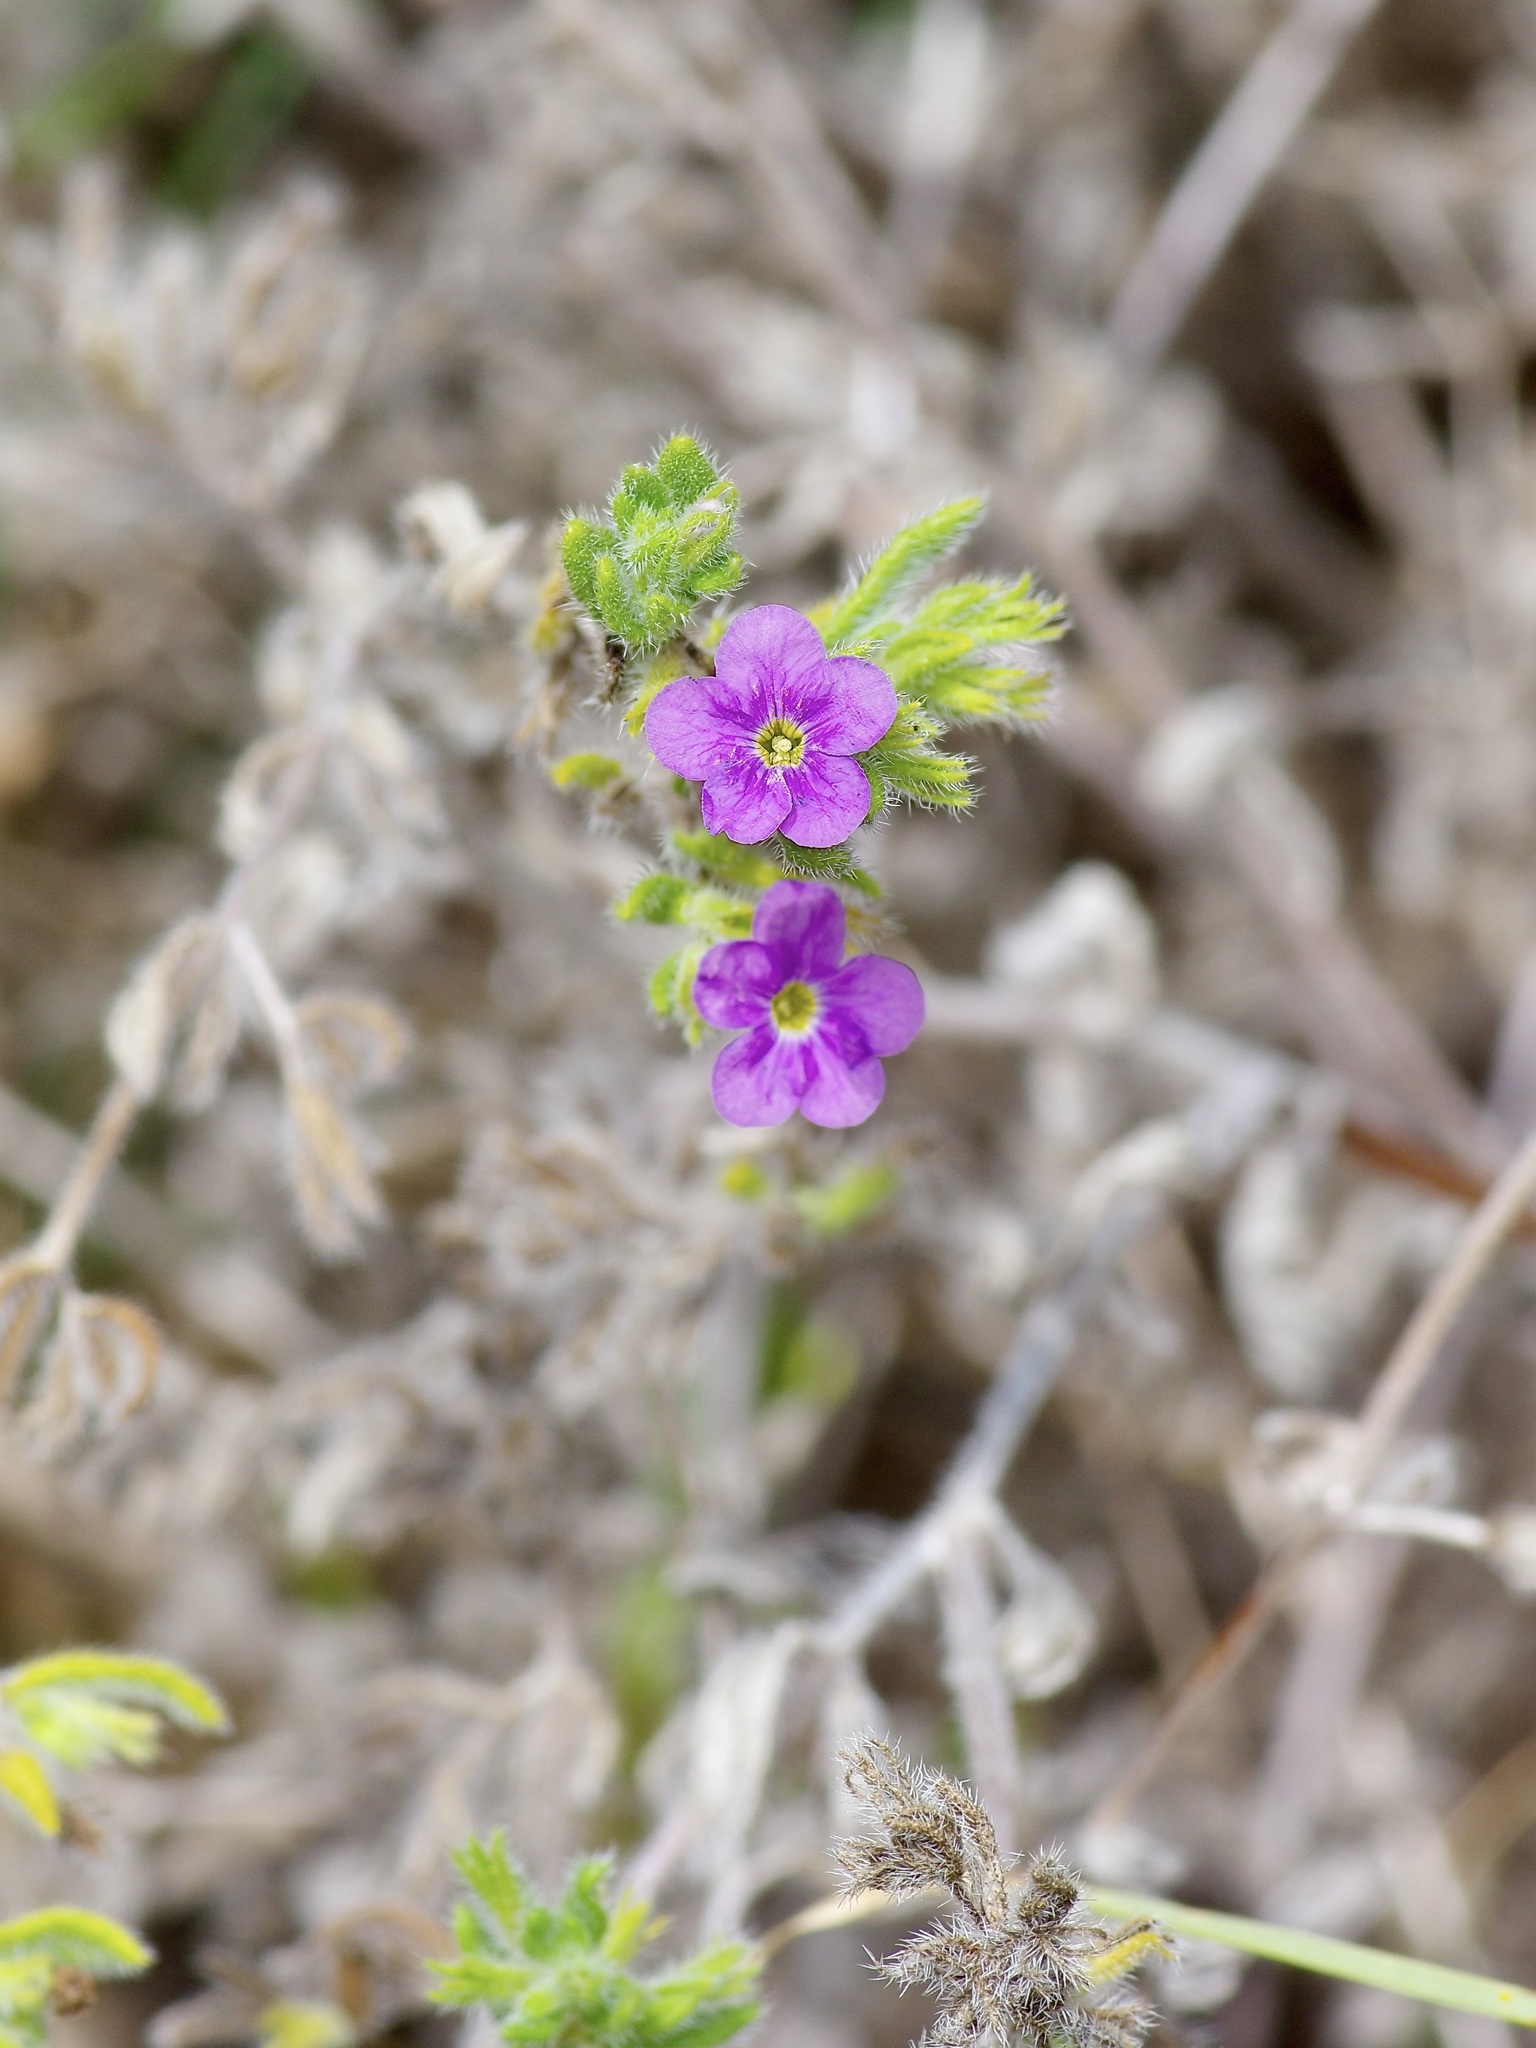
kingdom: Plantae
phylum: Tracheophyta
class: Magnoliopsida
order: Boraginales
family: Namaceae
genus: Nama
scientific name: Nama hispida
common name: Bristly nama
